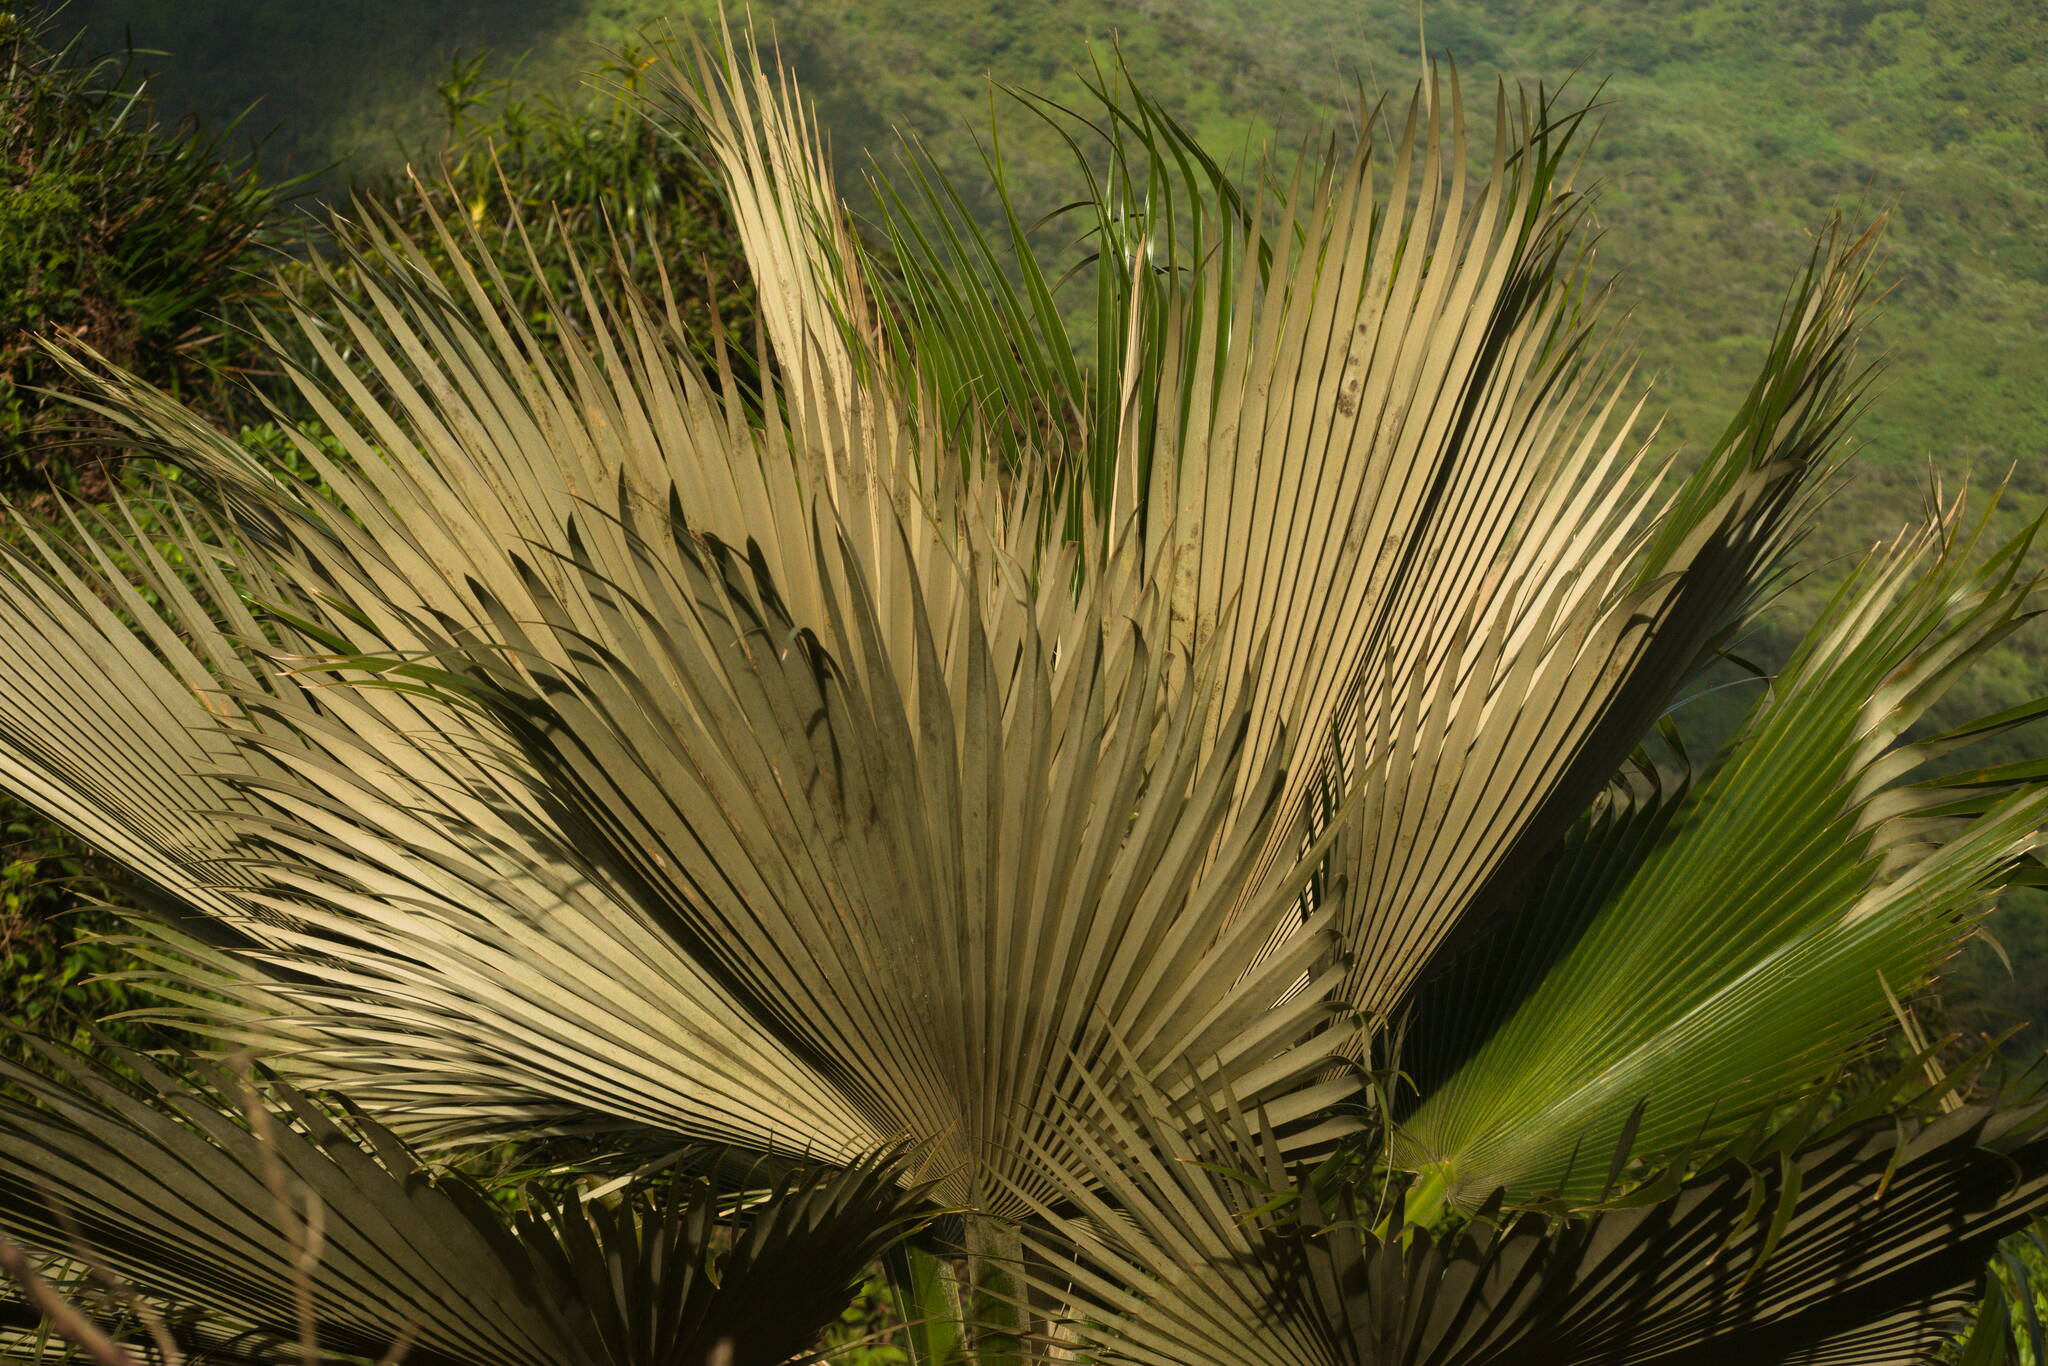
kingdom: Plantae
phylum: Tracheophyta
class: Liliopsida
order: Arecales
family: Arecaceae
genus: Pritchardia
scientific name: Pritchardia martii
